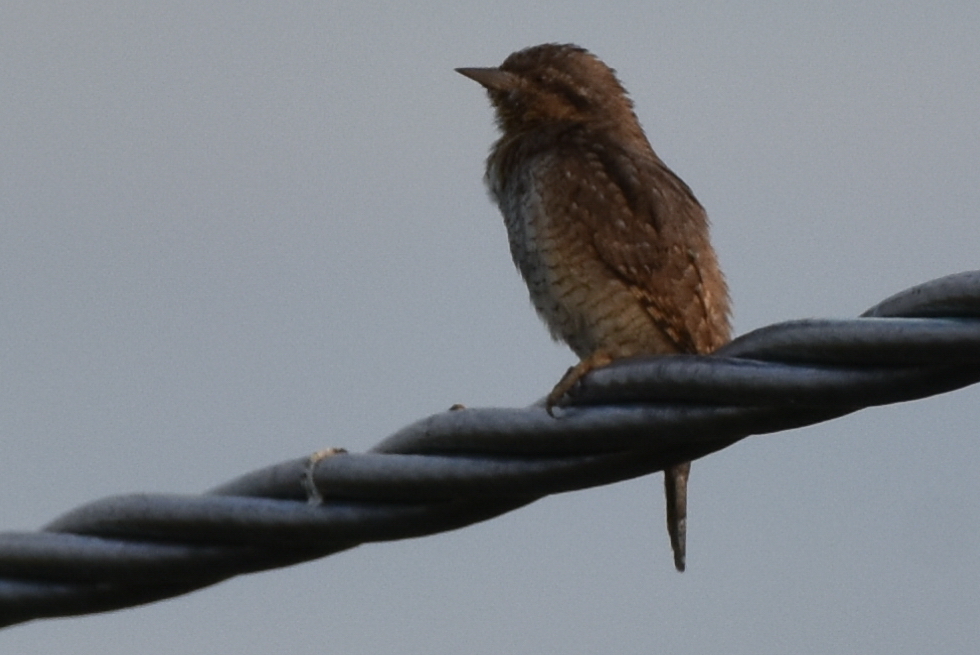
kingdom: Animalia
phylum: Chordata
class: Aves
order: Piciformes
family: Picidae
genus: Jynx
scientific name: Jynx torquilla
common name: Eurasian wryneck
